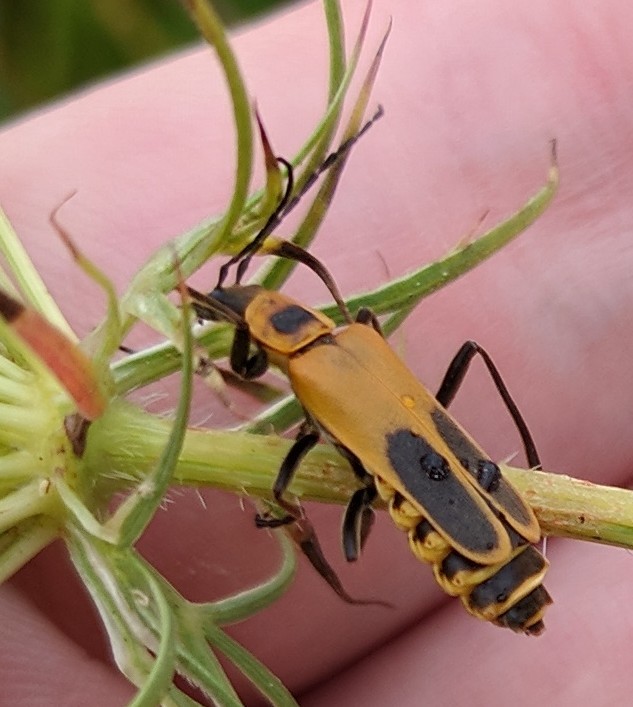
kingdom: Animalia
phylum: Arthropoda
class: Insecta
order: Coleoptera
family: Cantharidae
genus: Chauliognathus
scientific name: Chauliognathus pensylvanicus
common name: Goldenrod soldier beetle
